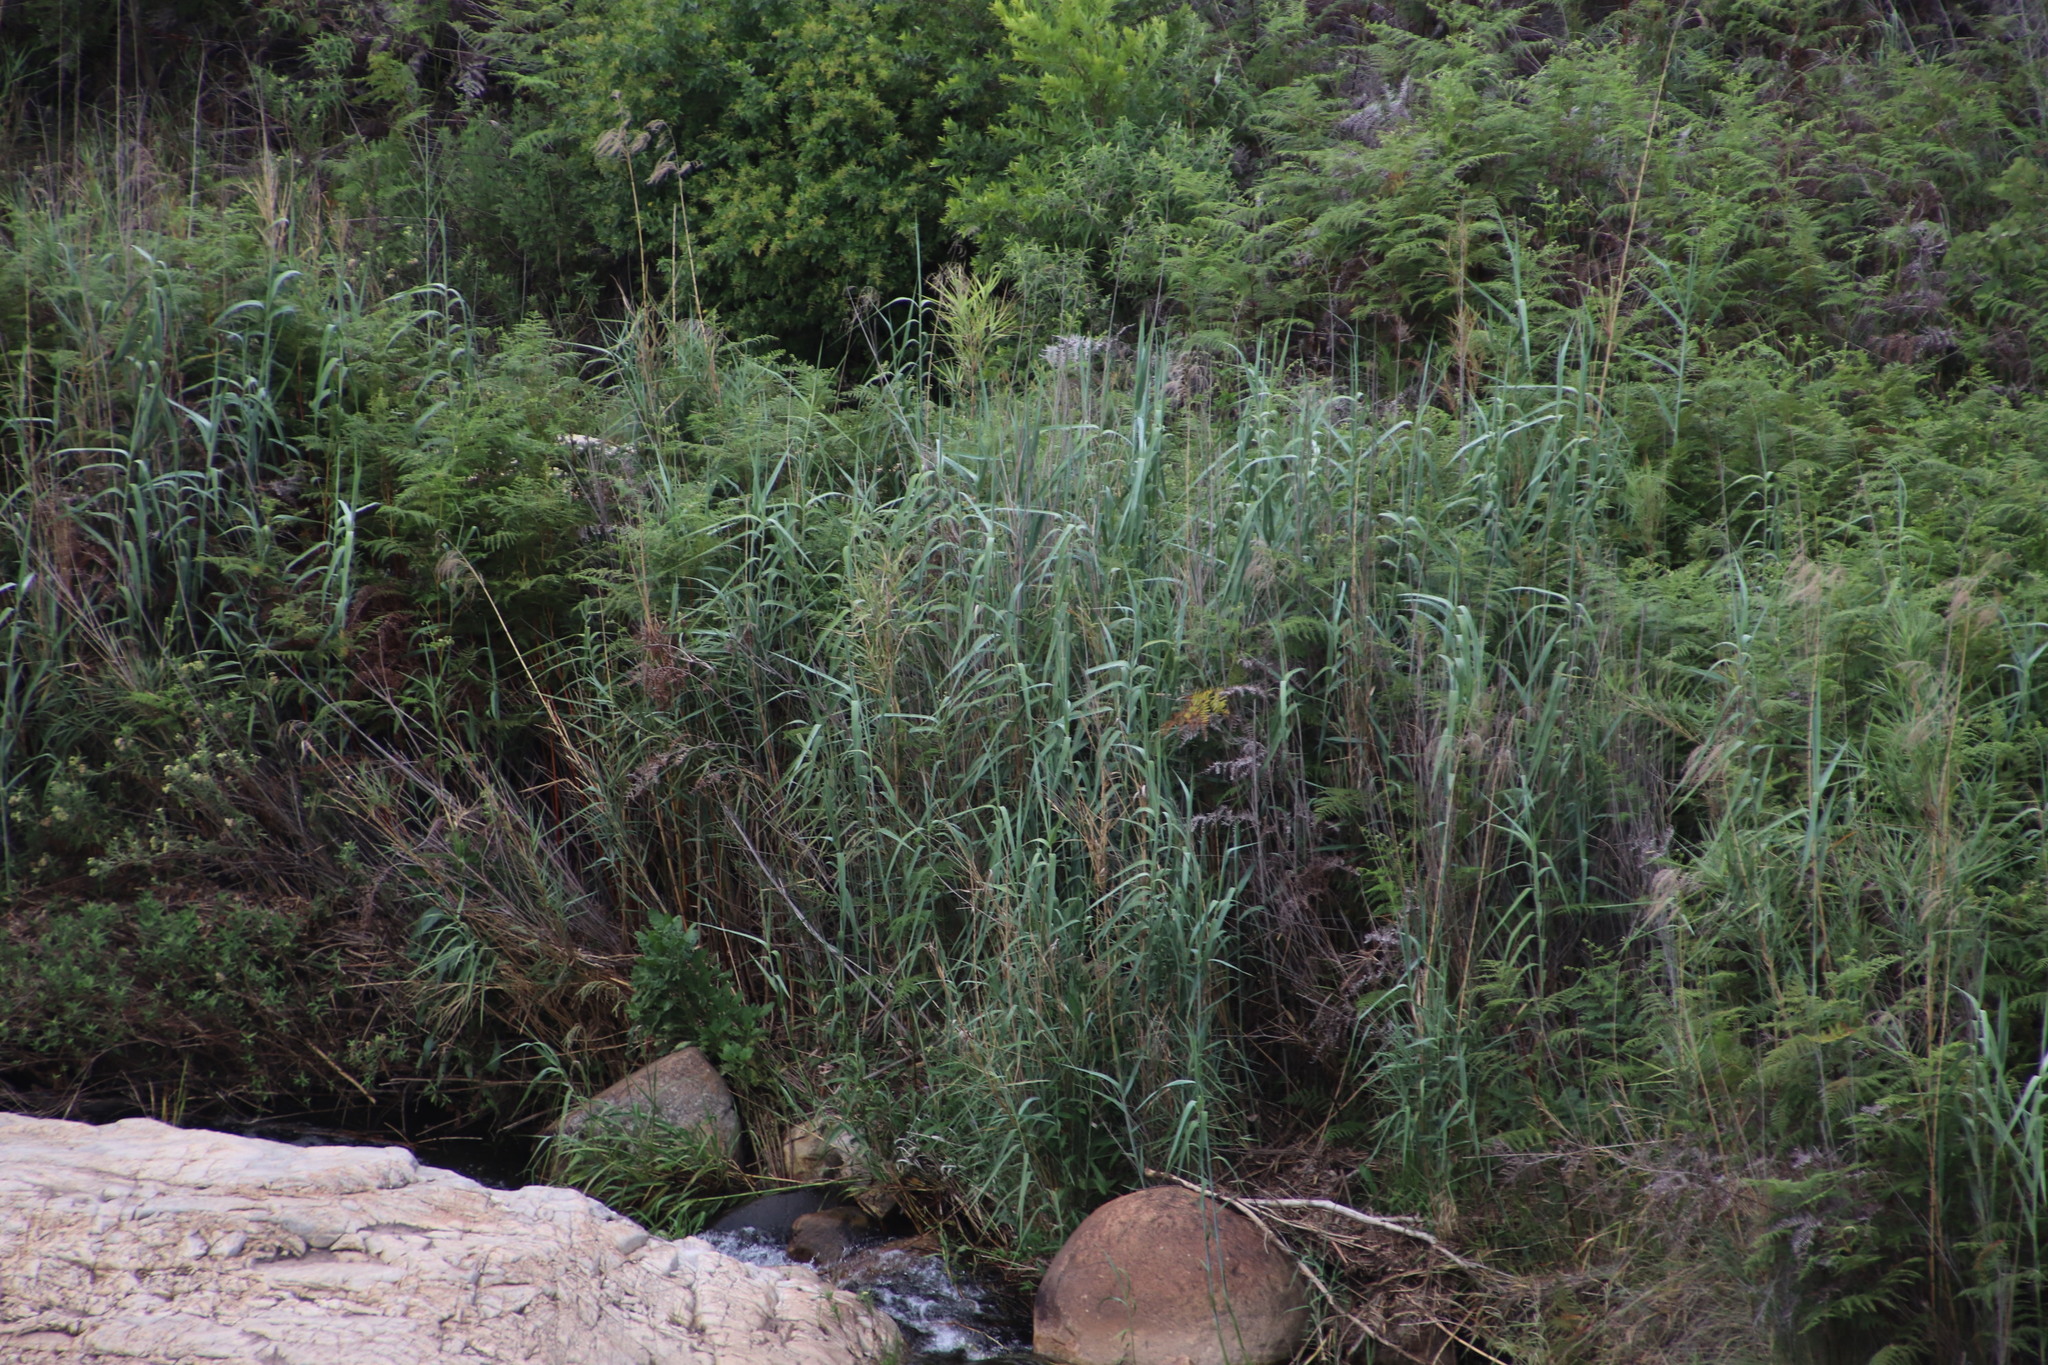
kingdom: Plantae
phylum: Tracheophyta
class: Liliopsida
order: Poales
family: Poaceae
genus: Phragmites
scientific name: Phragmites australis
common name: Common reed
